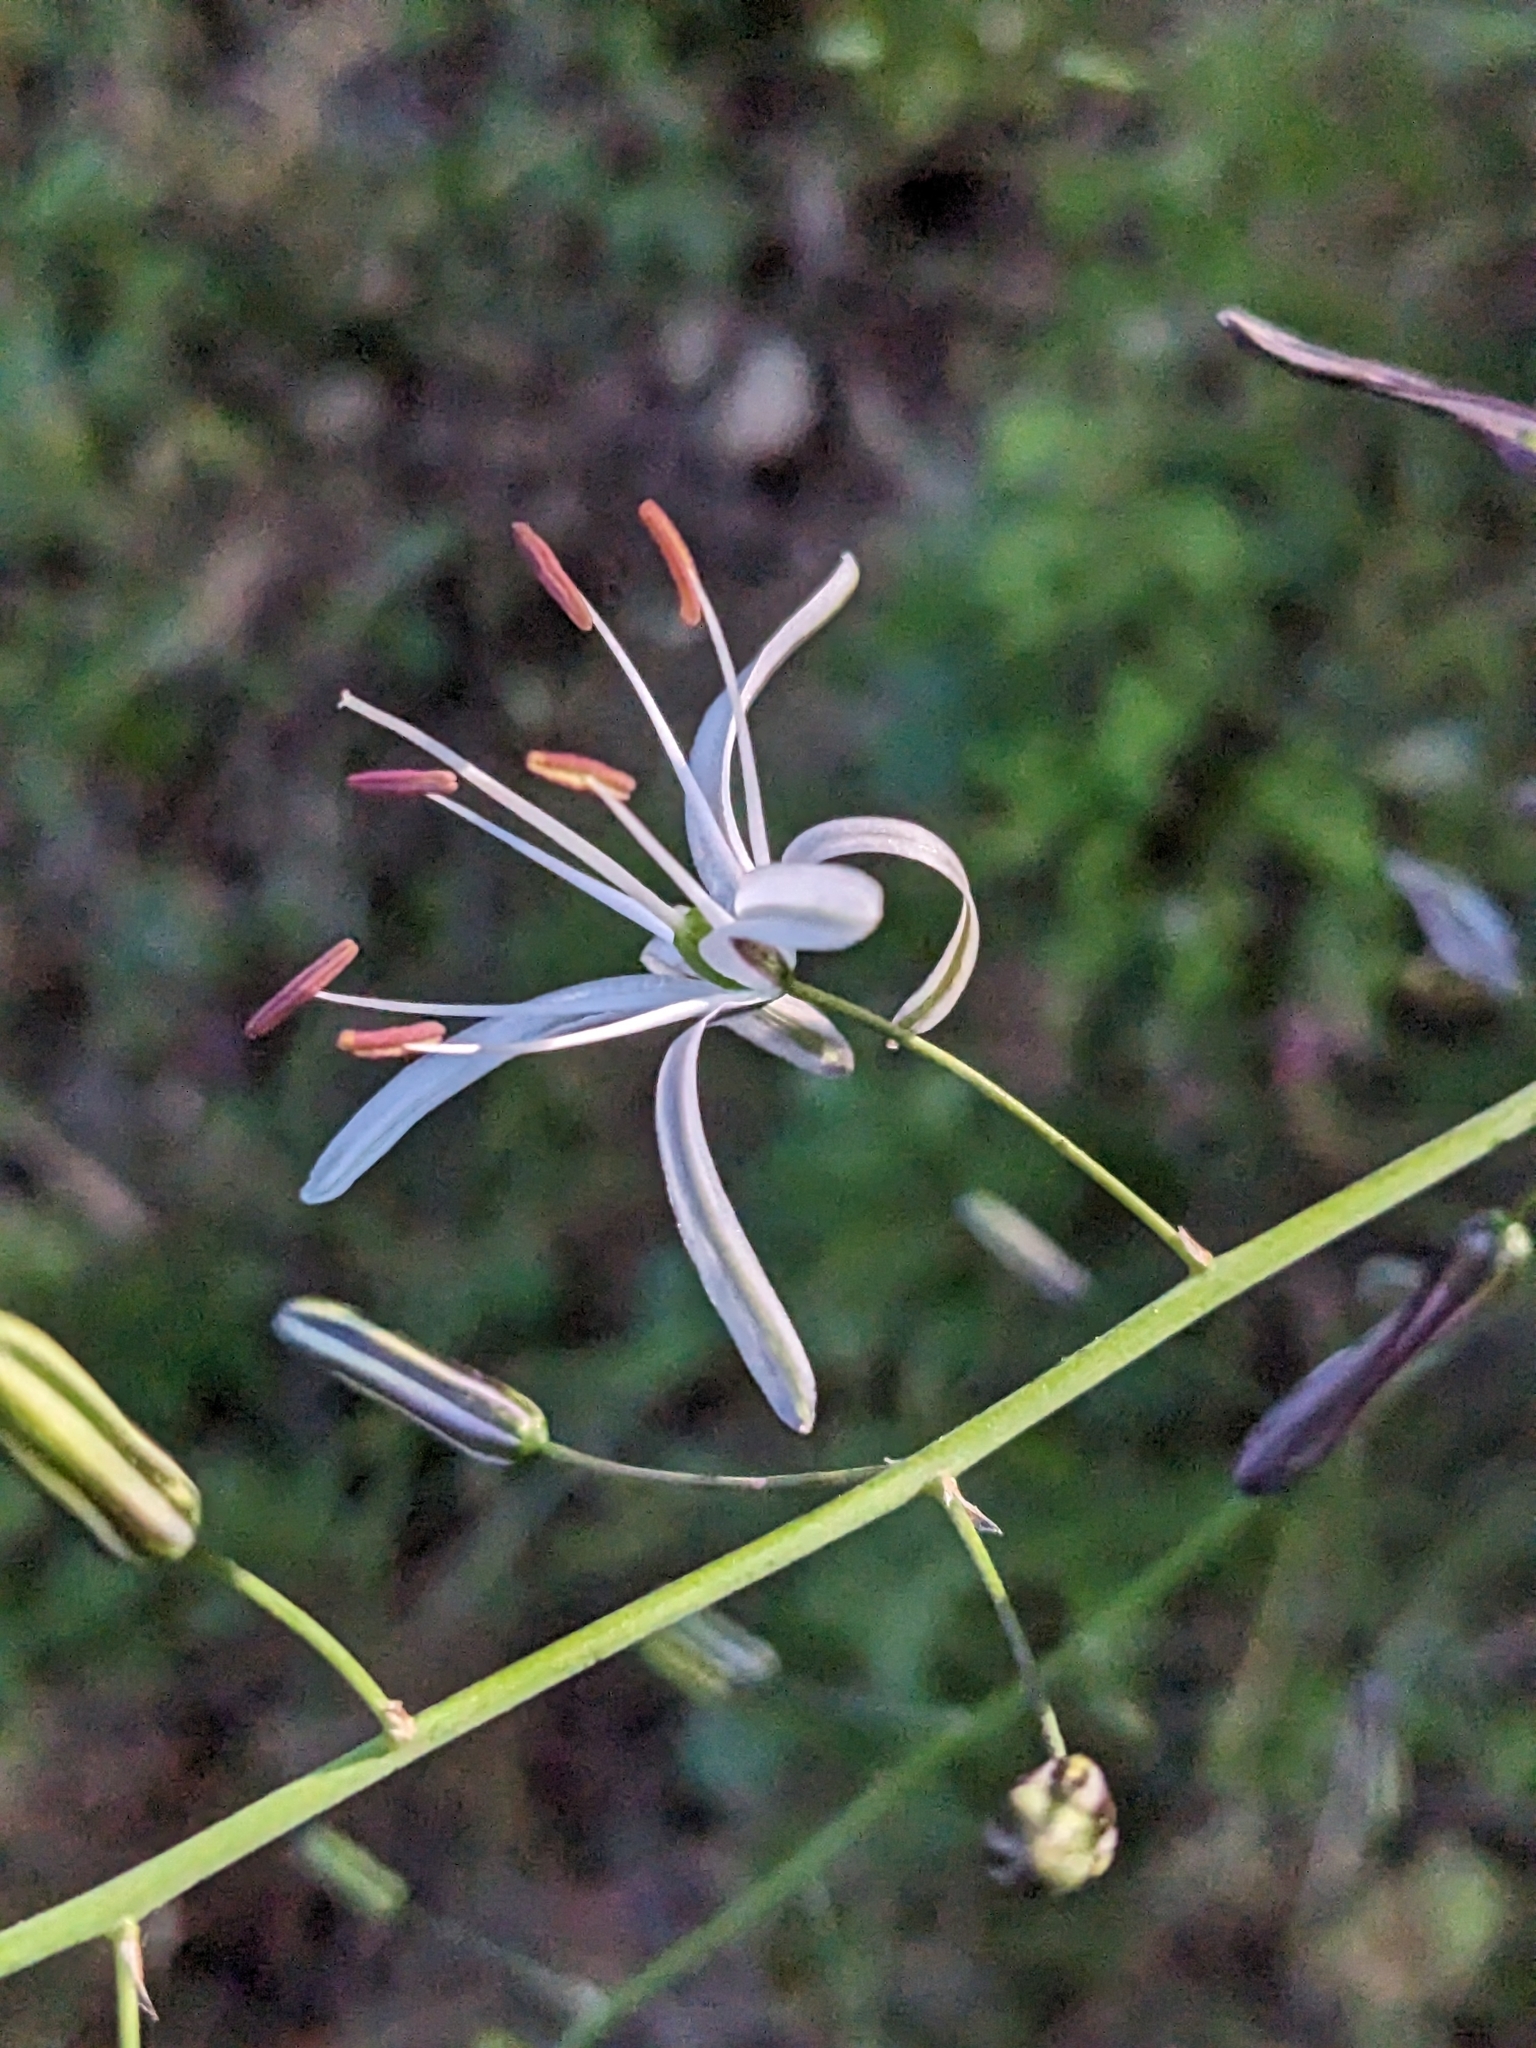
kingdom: Plantae
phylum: Tracheophyta
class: Liliopsida
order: Asparagales
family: Asparagaceae
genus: Chlorogalum
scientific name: Chlorogalum pomeridianum
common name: Amole
